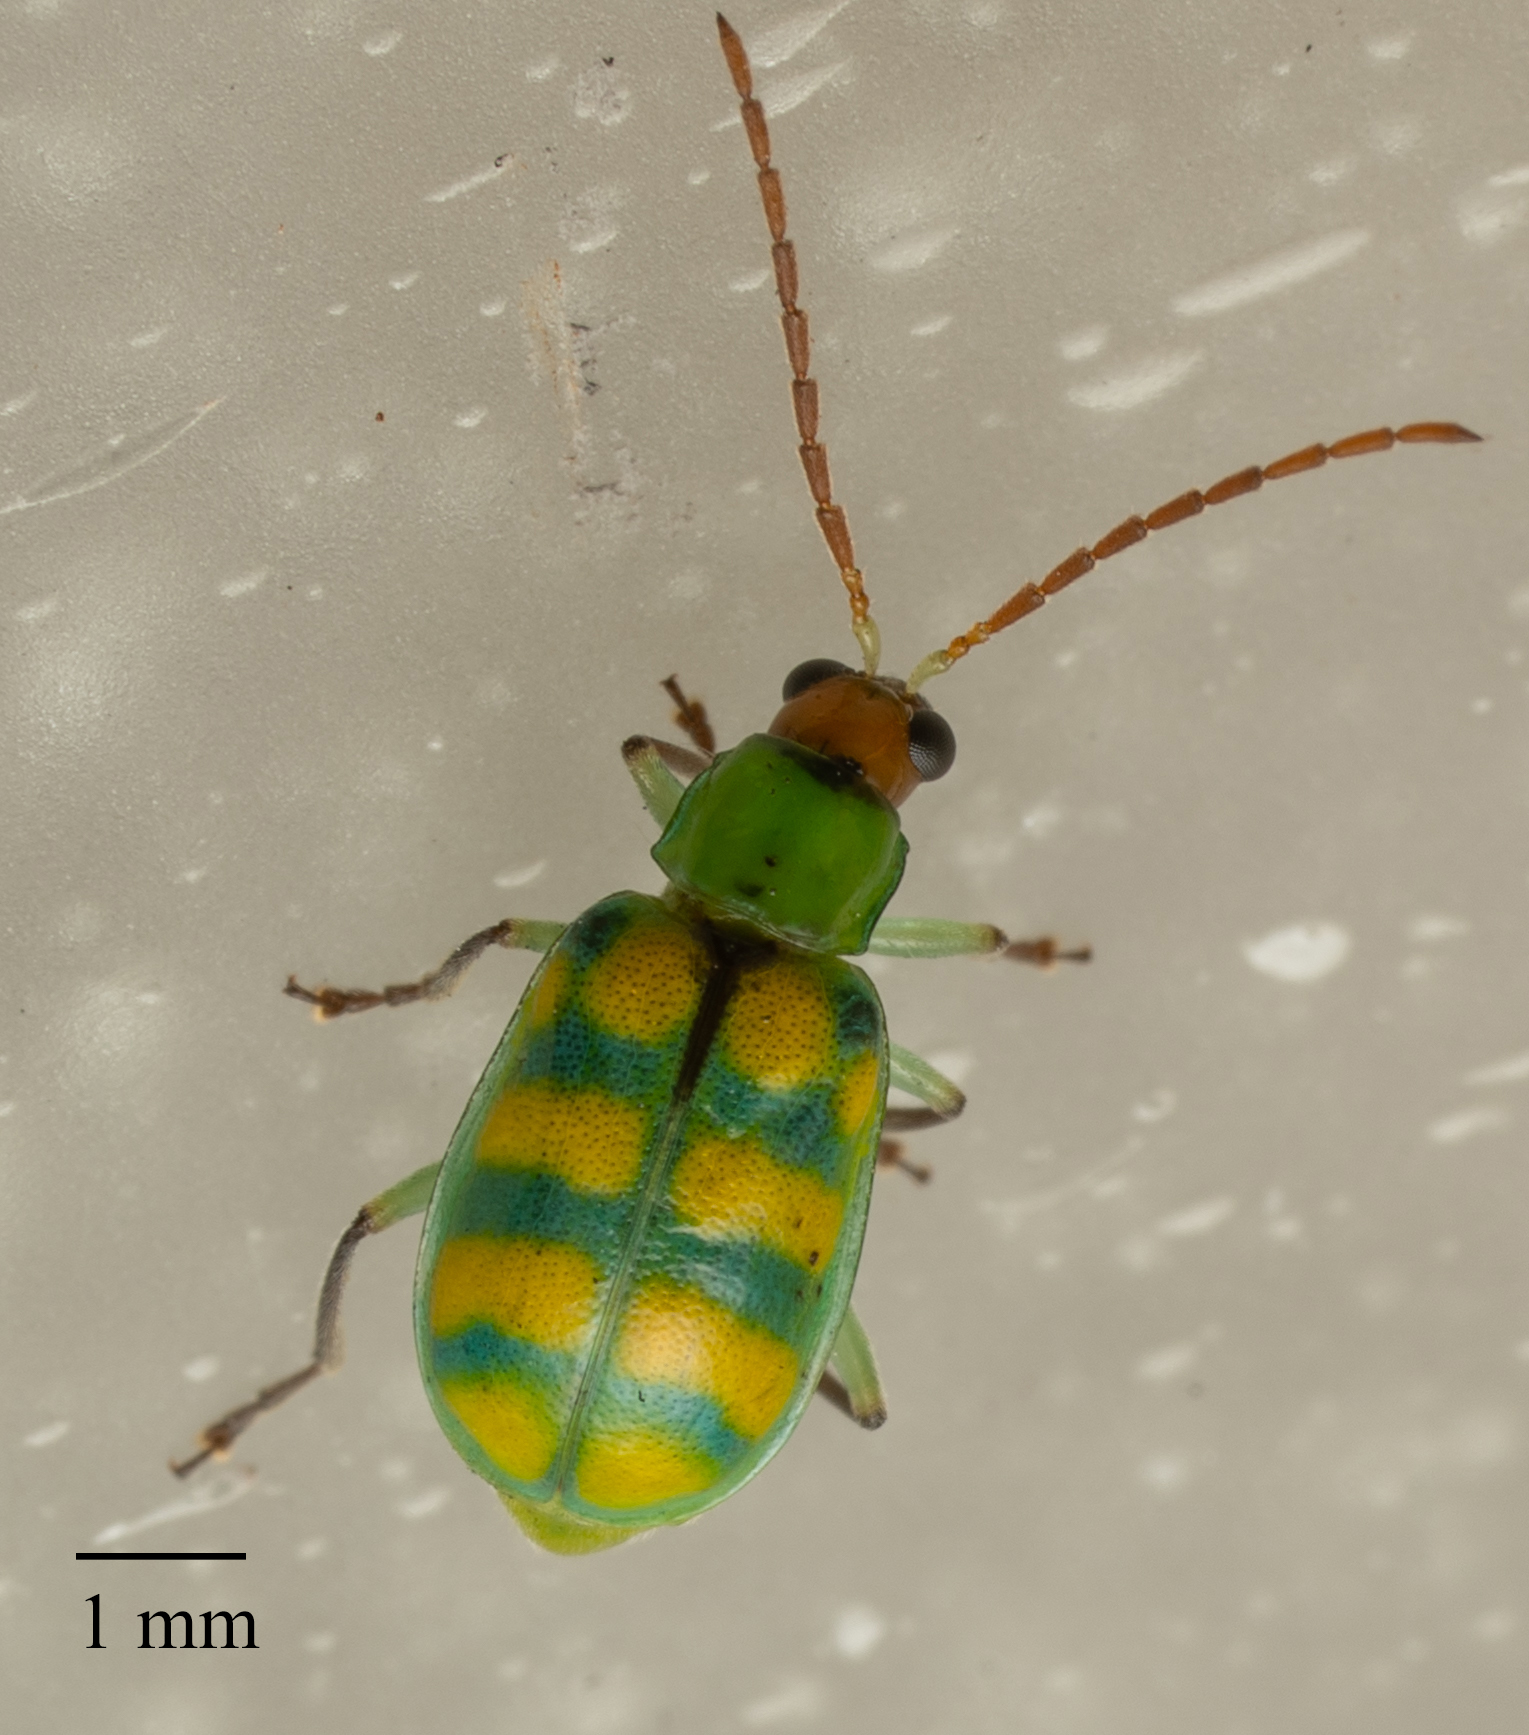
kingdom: Animalia
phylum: Arthropoda
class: Insecta
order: Coleoptera
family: Chrysomelidae
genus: Diabrotica
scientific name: Diabrotica balteata
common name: Leaf beetle
